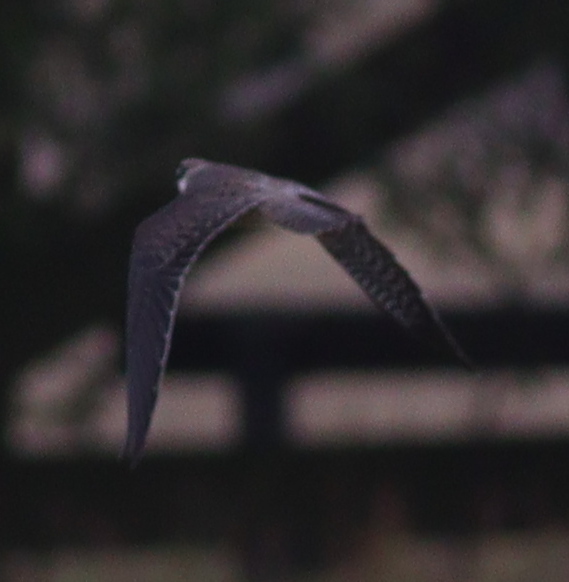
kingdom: Animalia
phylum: Chordata
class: Aves
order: Falconiformes
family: Falconidae
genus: Falco
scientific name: Falco vespertinus
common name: Red-footed falcon
